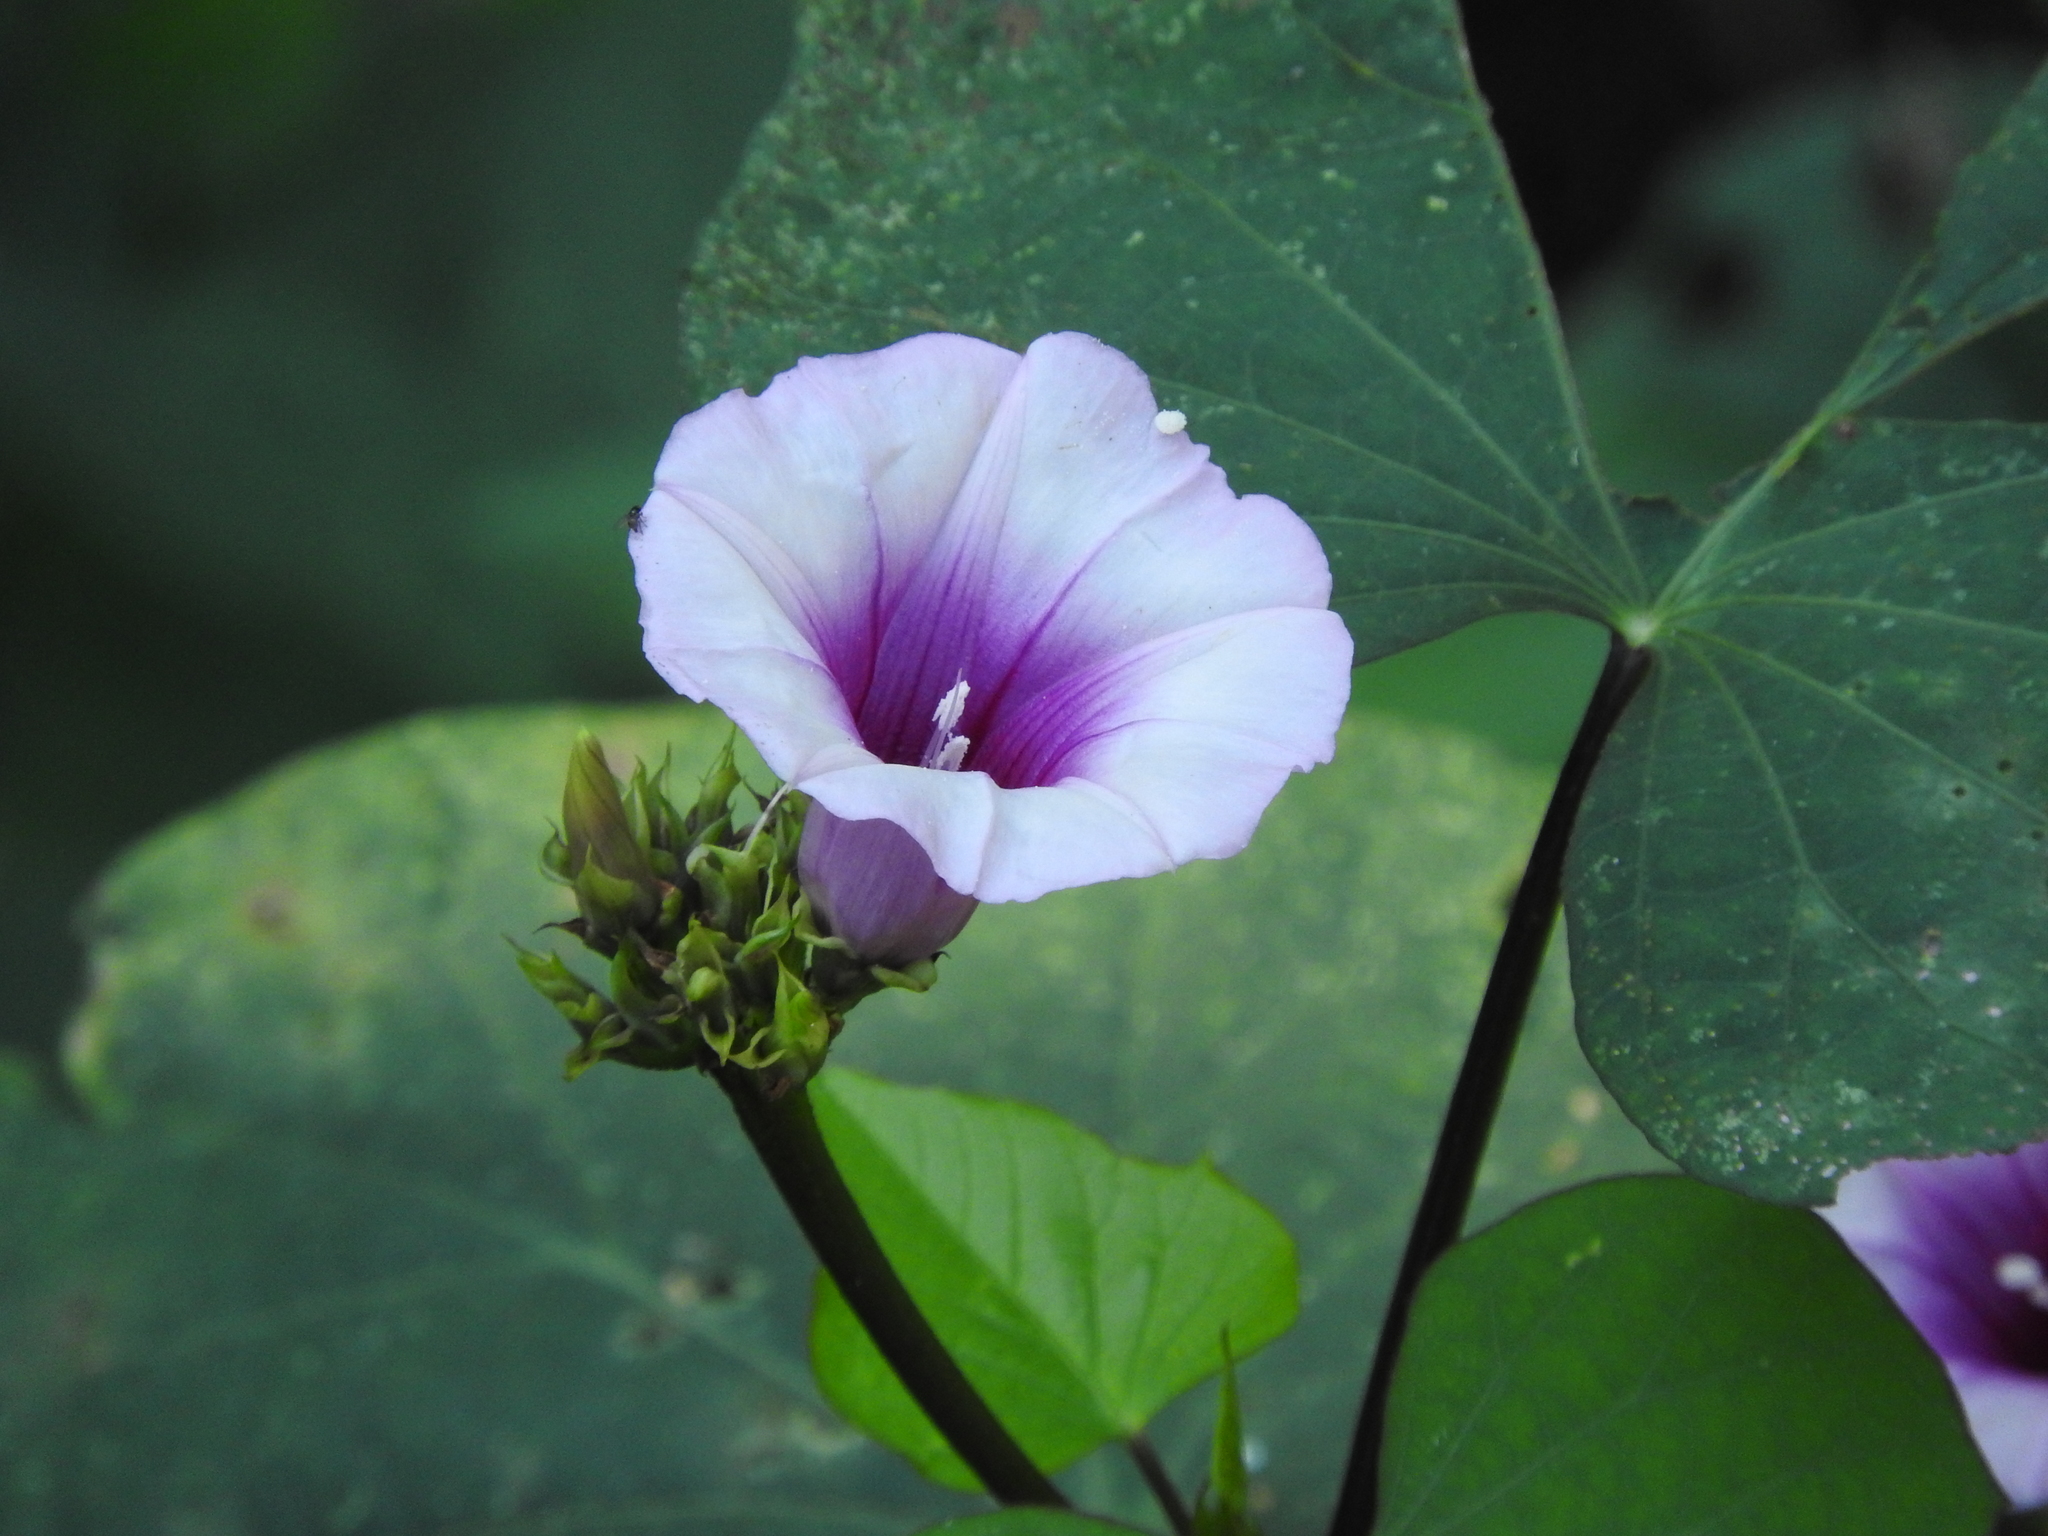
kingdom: Plantae
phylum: Tracheophyta
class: Magnoliopsida
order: Solanales
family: Convolvulaceae
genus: Ipomoea
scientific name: Ipomoea batatas
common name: Sweet-potato
